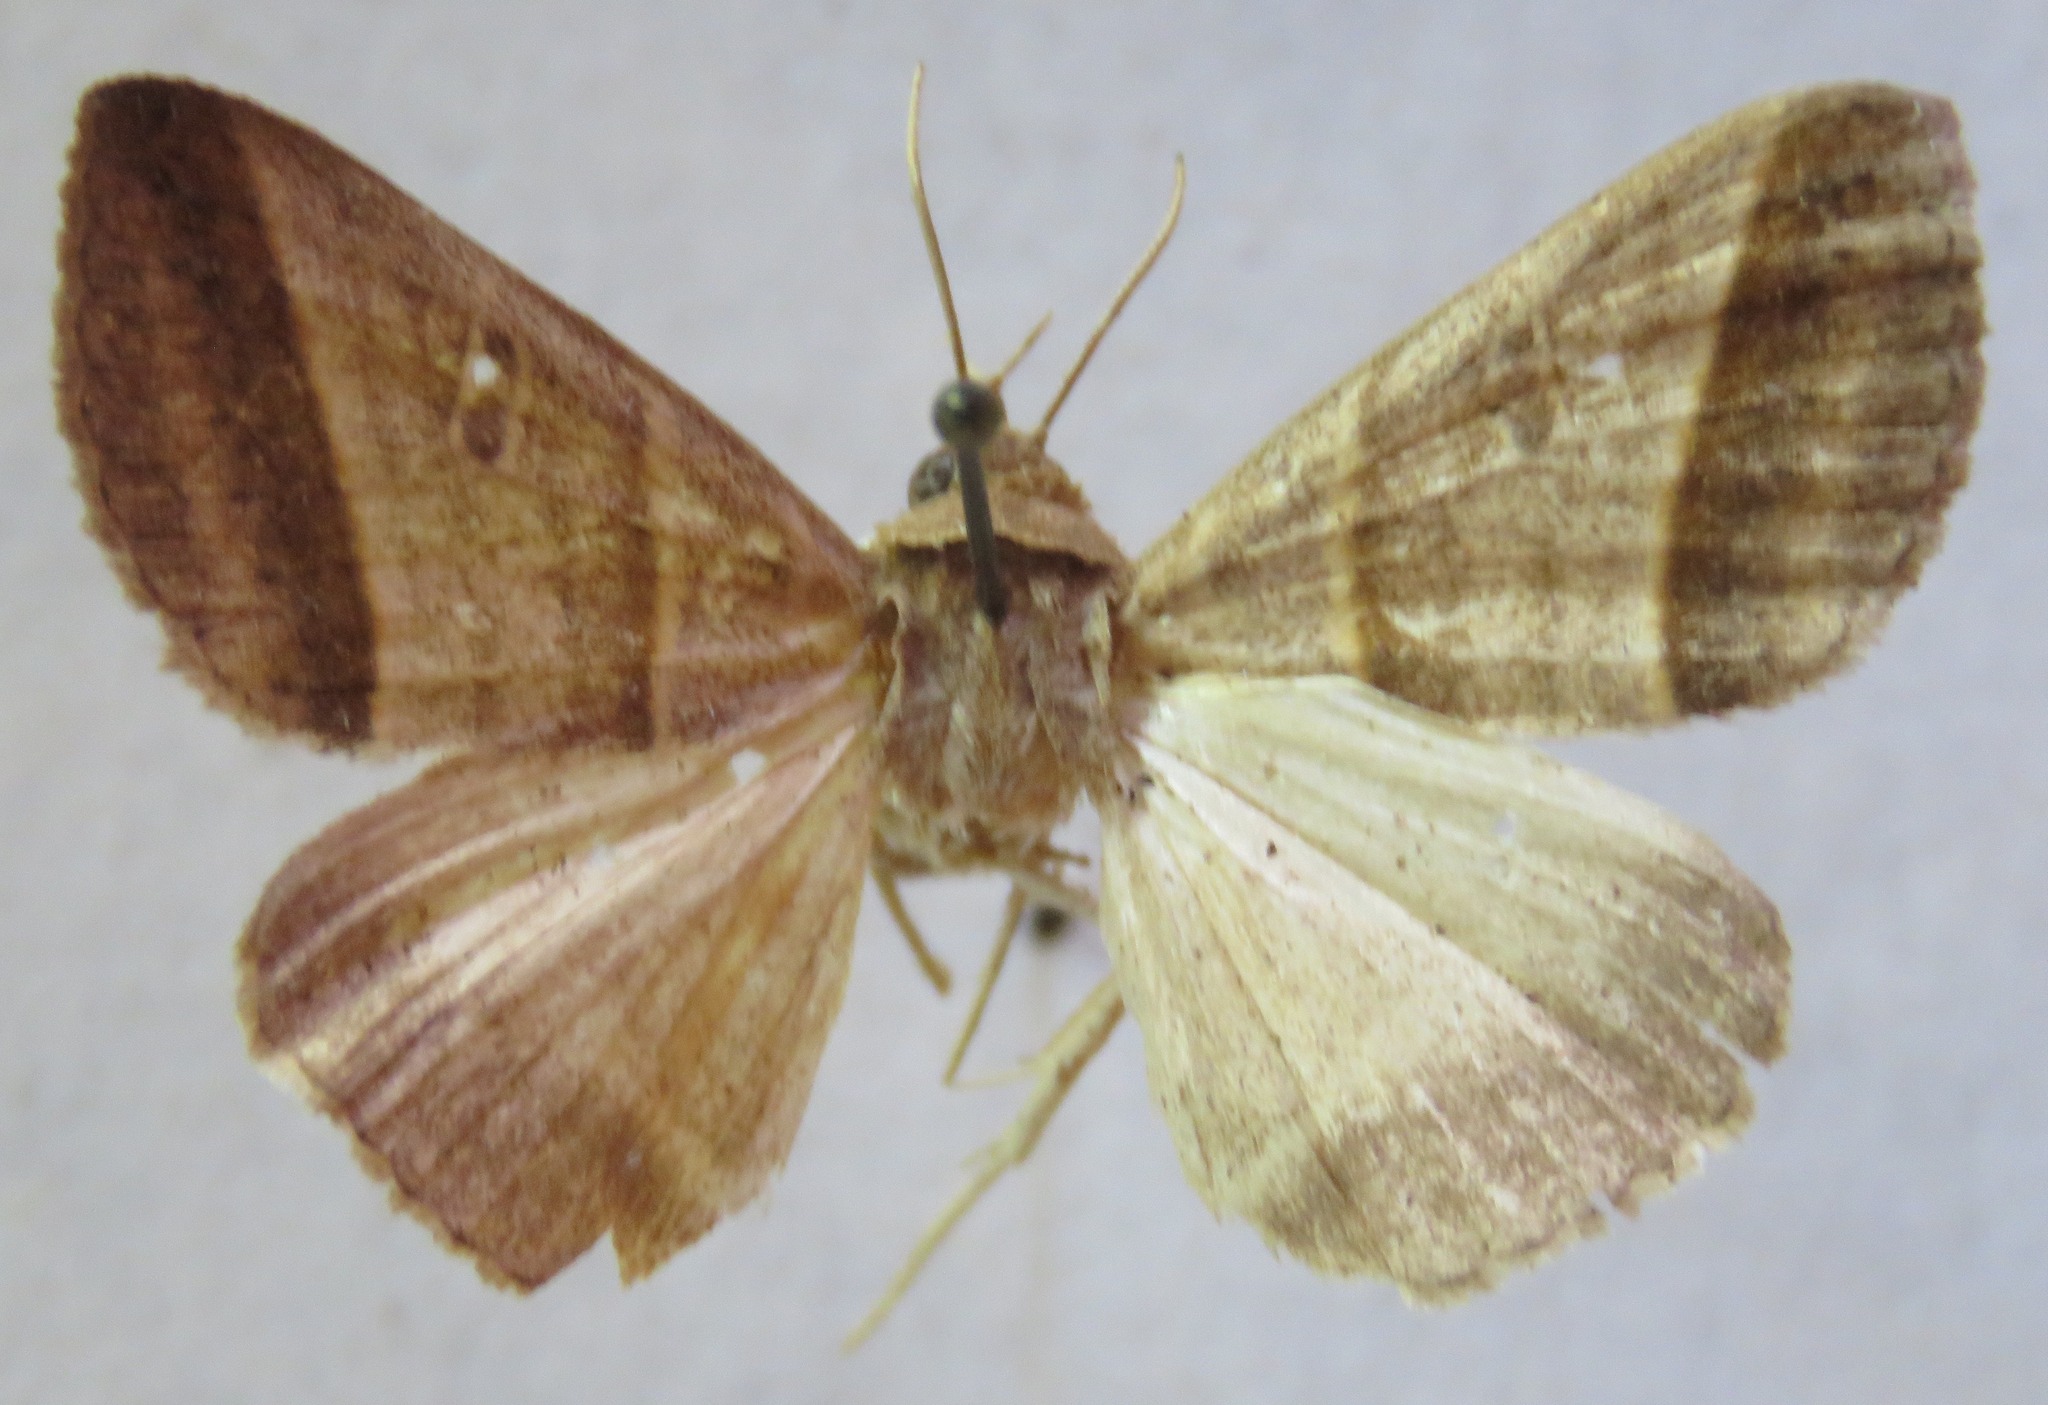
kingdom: Animalia
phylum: Arthropoda
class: Insecta
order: Lepidoptera
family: Erebidae
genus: Ptichodis
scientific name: Ptichodis vinculum
